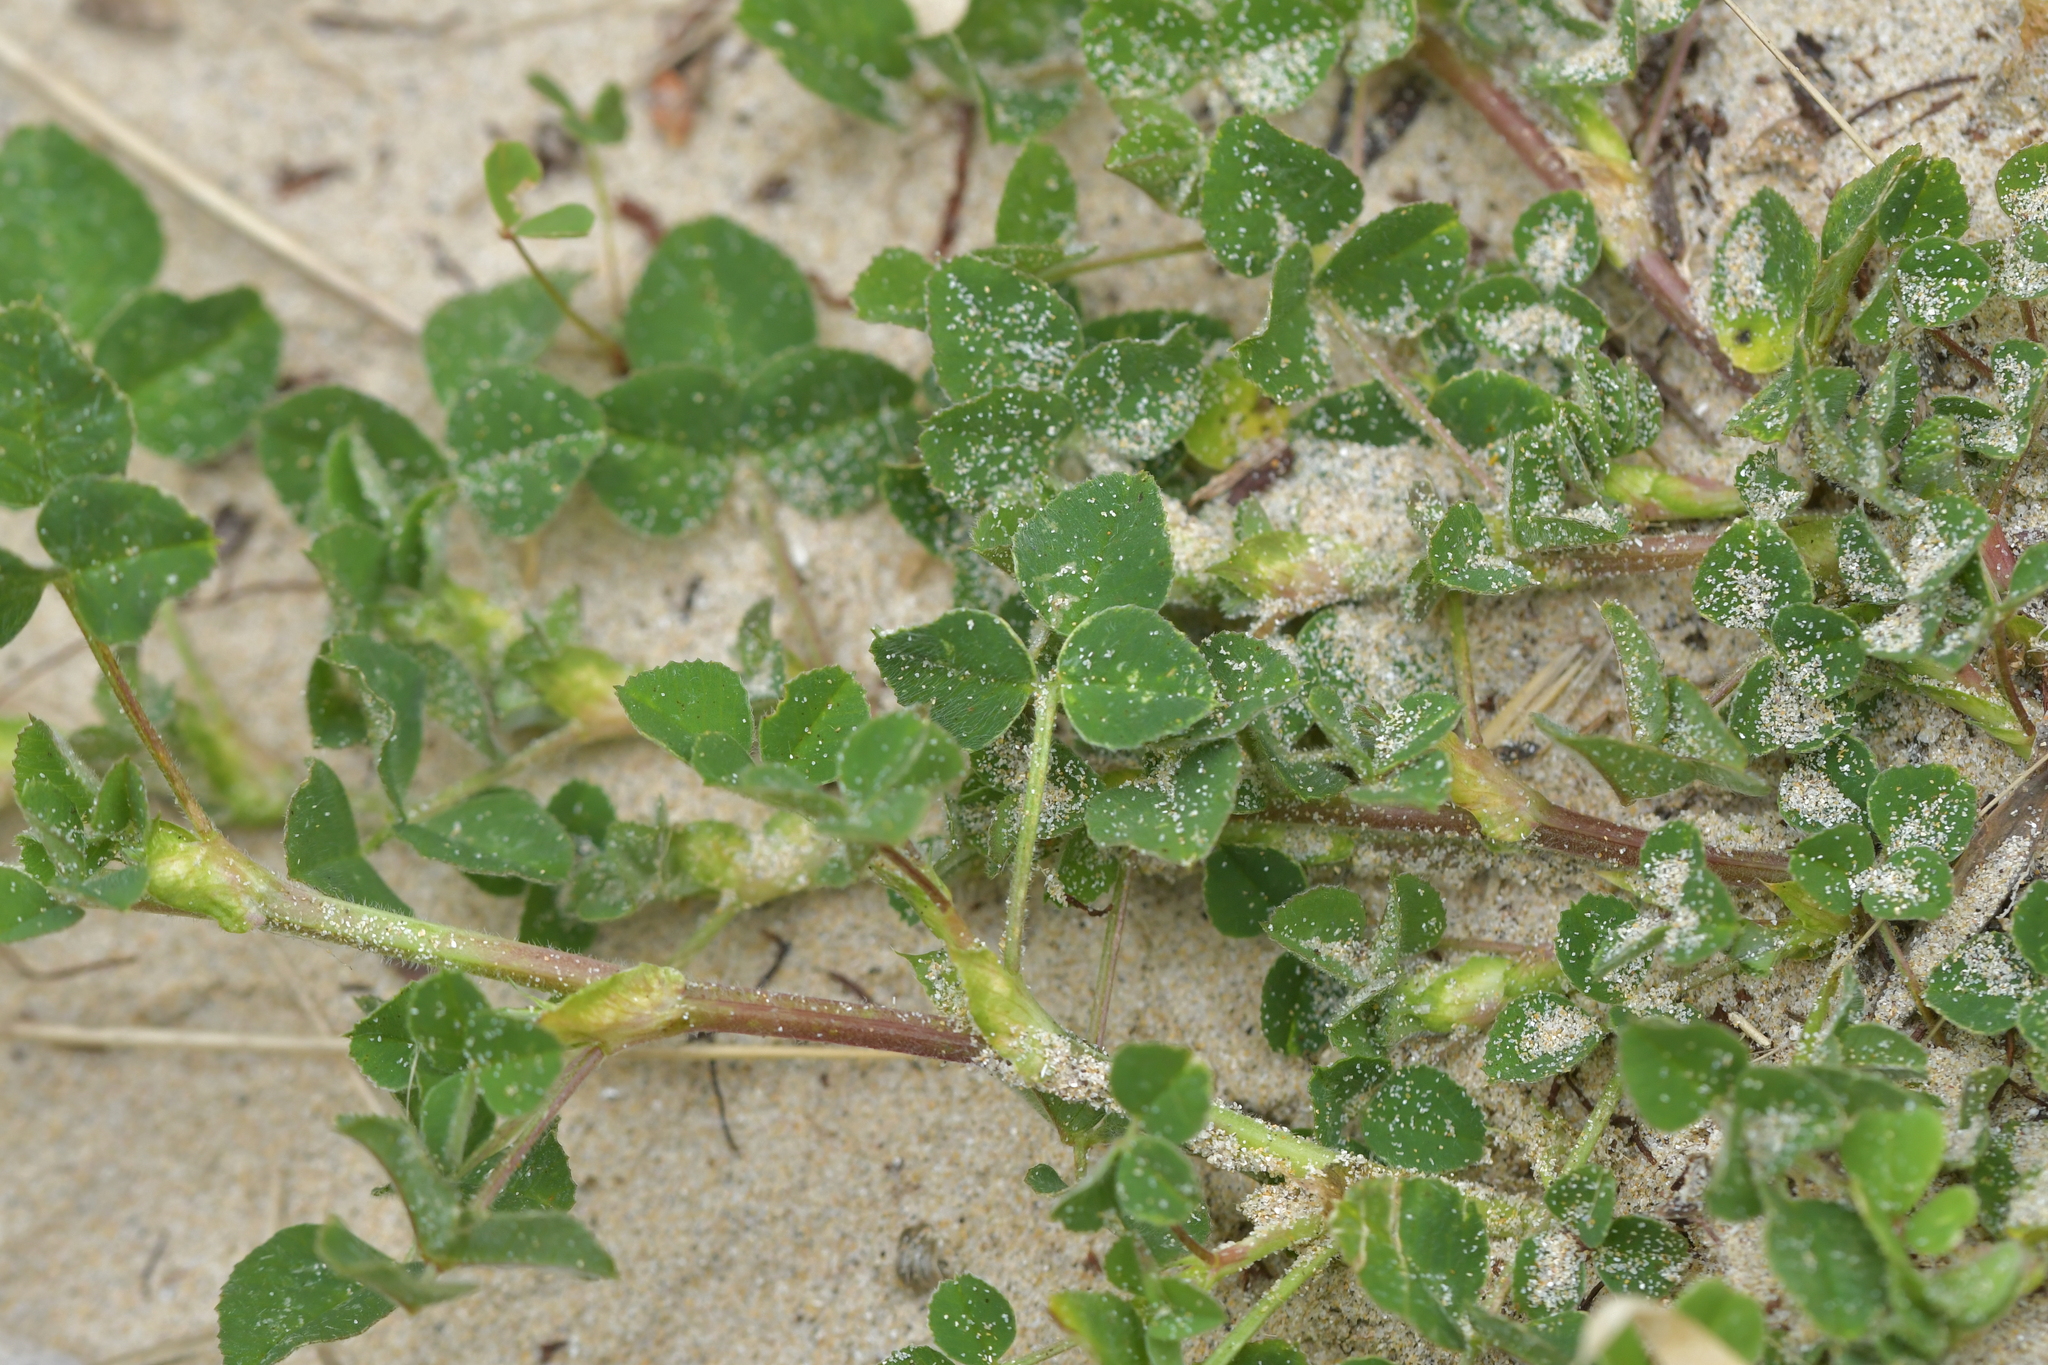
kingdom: Plantae
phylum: Tracheophyta
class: Magnoliopsida
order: Fabales
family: Fabaceae
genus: Medicago
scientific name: Medicago lupulina
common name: Black medick
